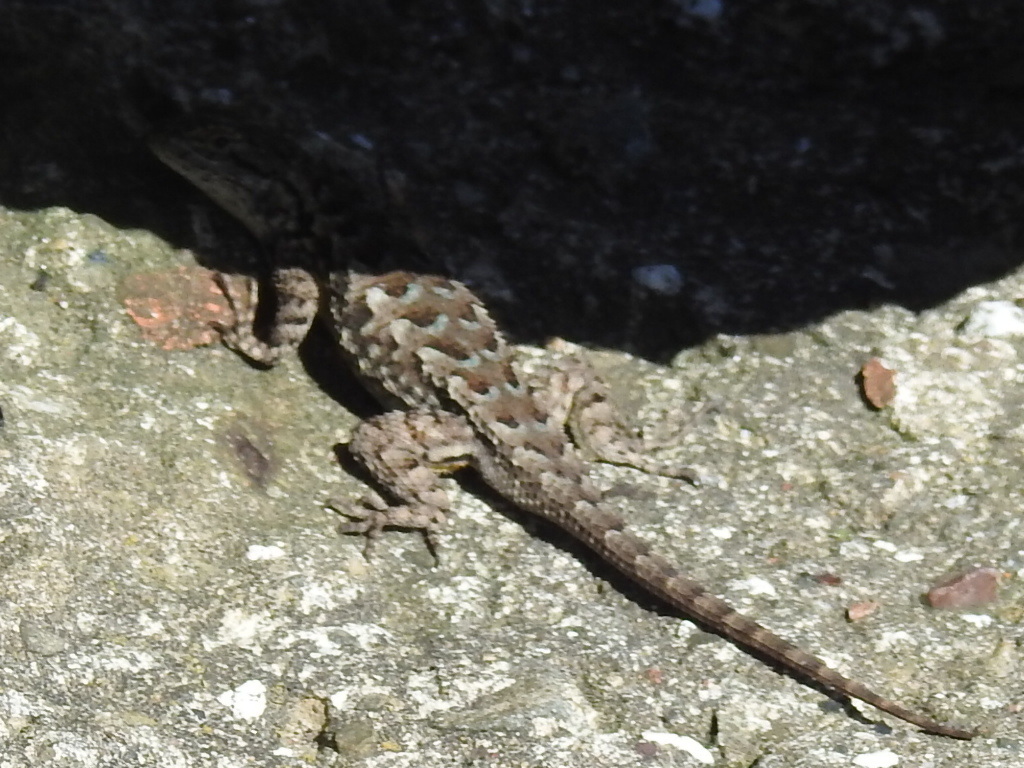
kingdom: Animalia
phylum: Chordata
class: Squamata
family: Phrynosomatidae
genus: Sceloporus
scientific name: Sceloporus occidentalis
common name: Western fence lizard
